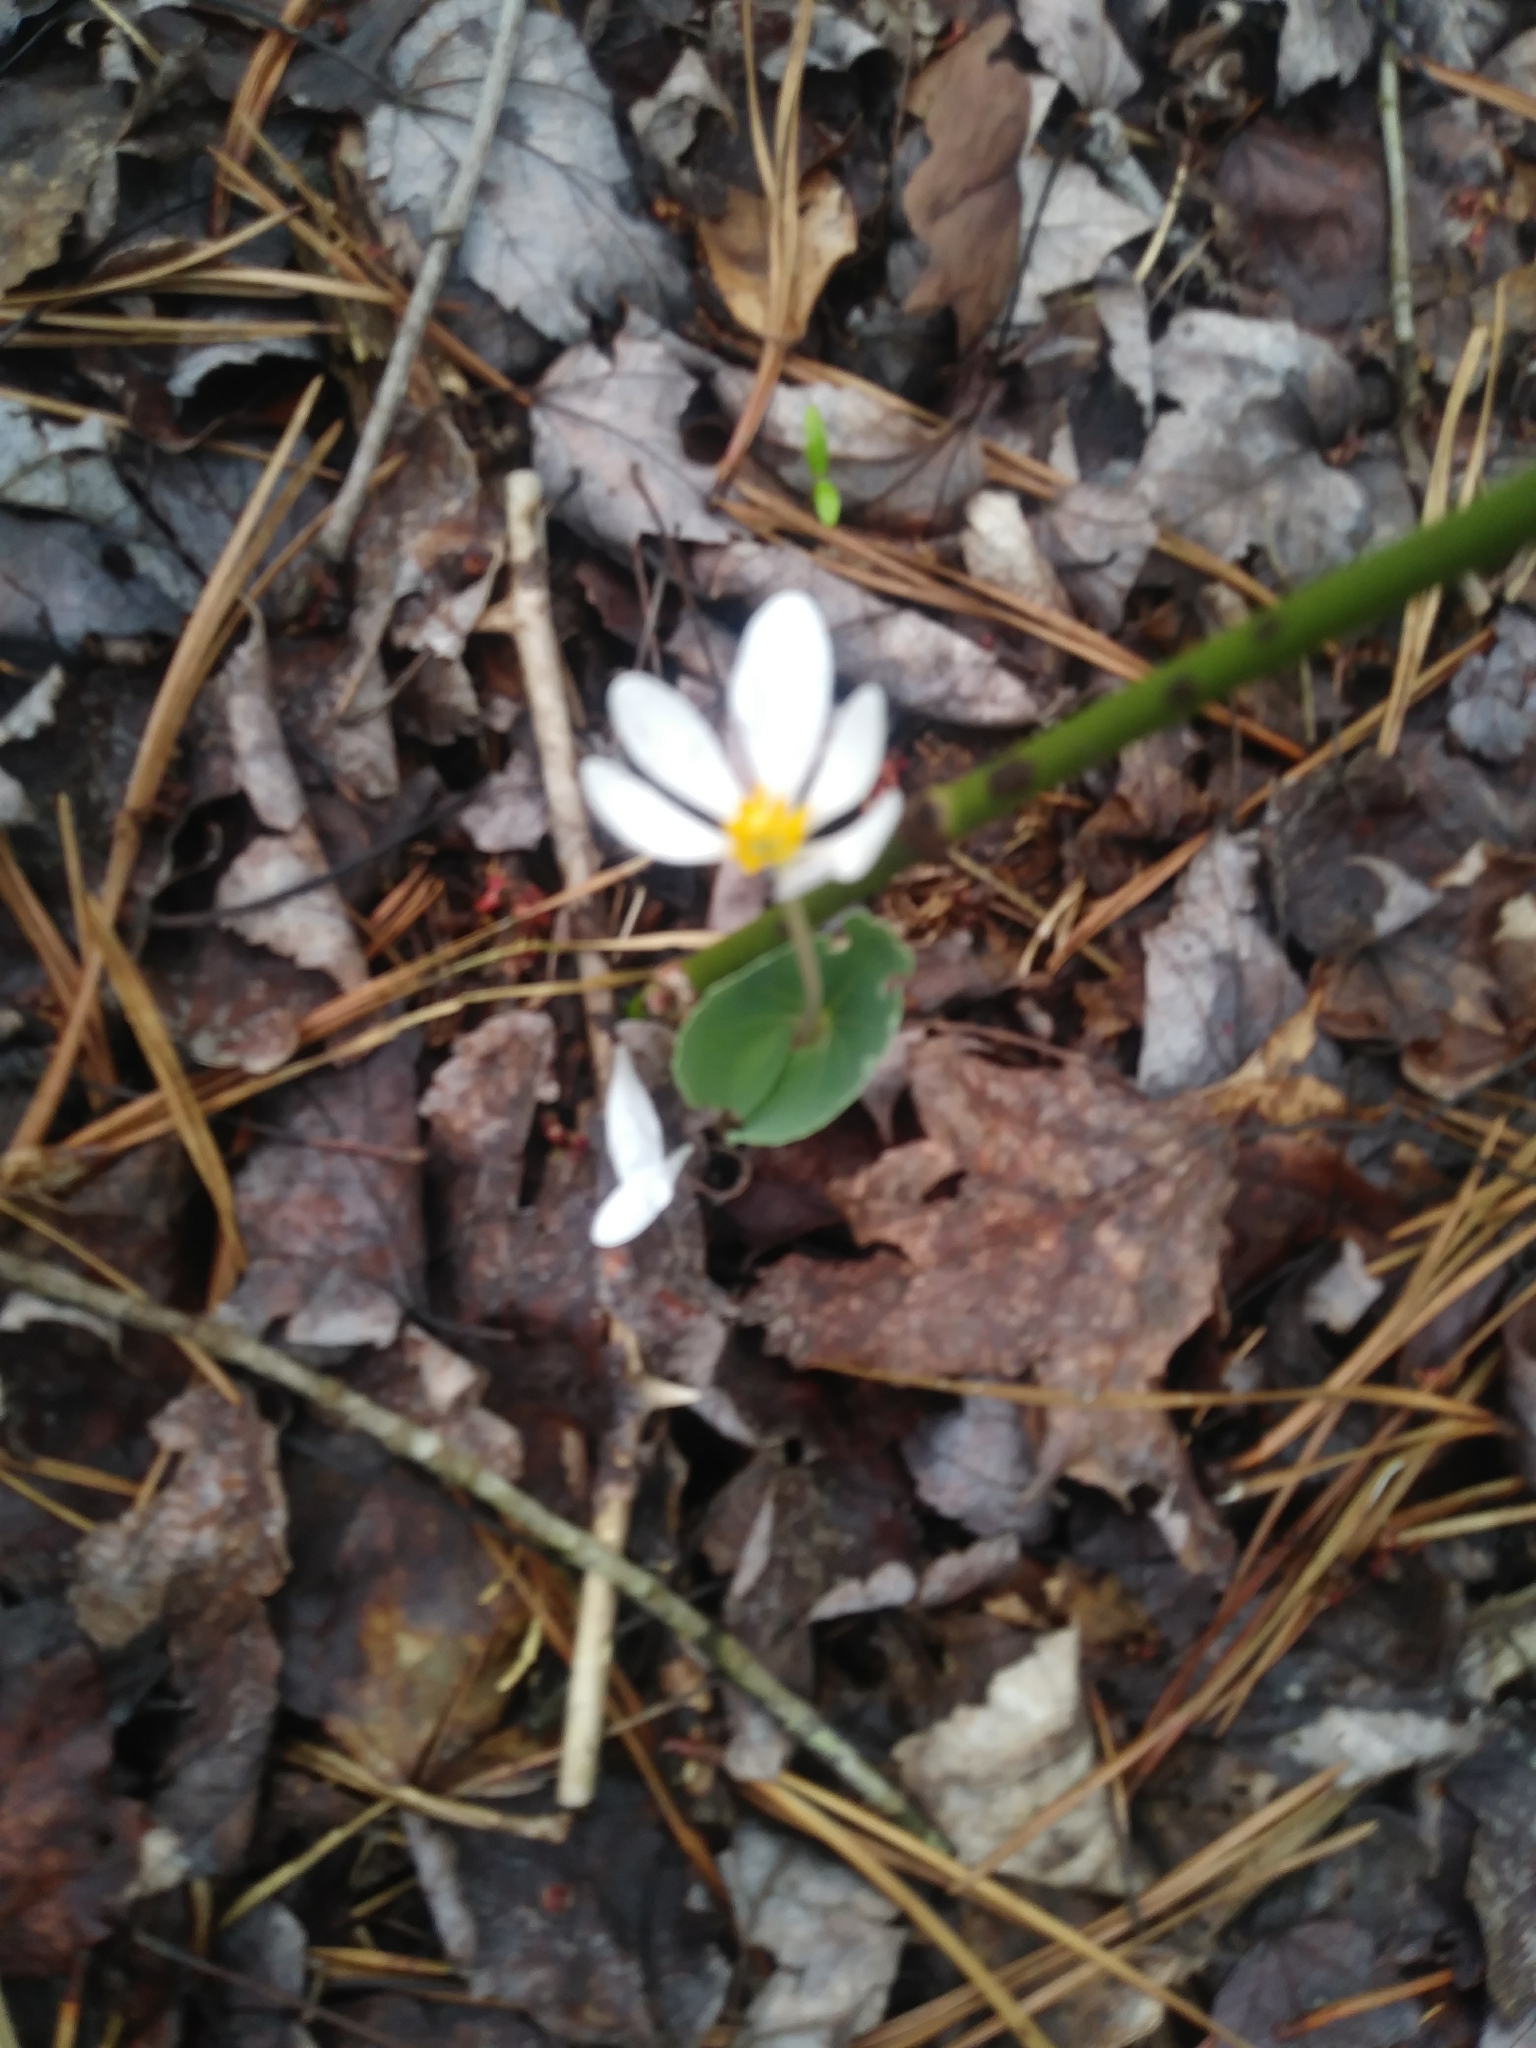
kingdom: Plantae
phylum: Tracheophyta
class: Magnoliopsida
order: Ranunculales
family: Papaveraceae
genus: Sanguinaria
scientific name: Sanguinaria canadensis
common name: Bloodroot
